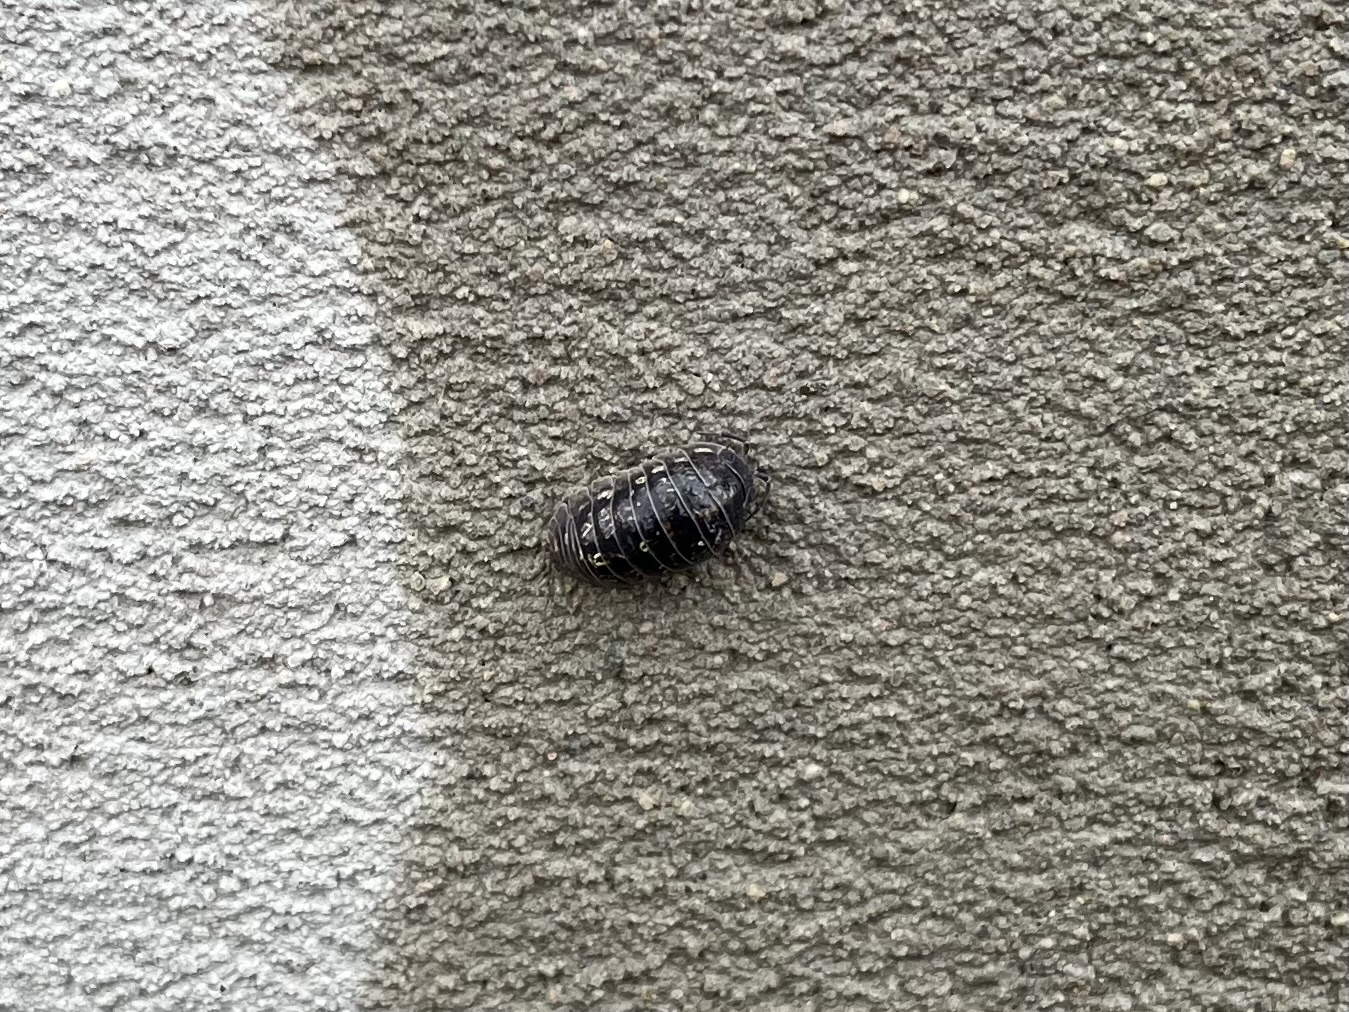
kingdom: Animalia
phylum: Arthropoda
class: Malacostraca
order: Isopoda
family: Armadillidiidae
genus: Armadillidium
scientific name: Armadillidium vulgare
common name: Common pill woodlouse
